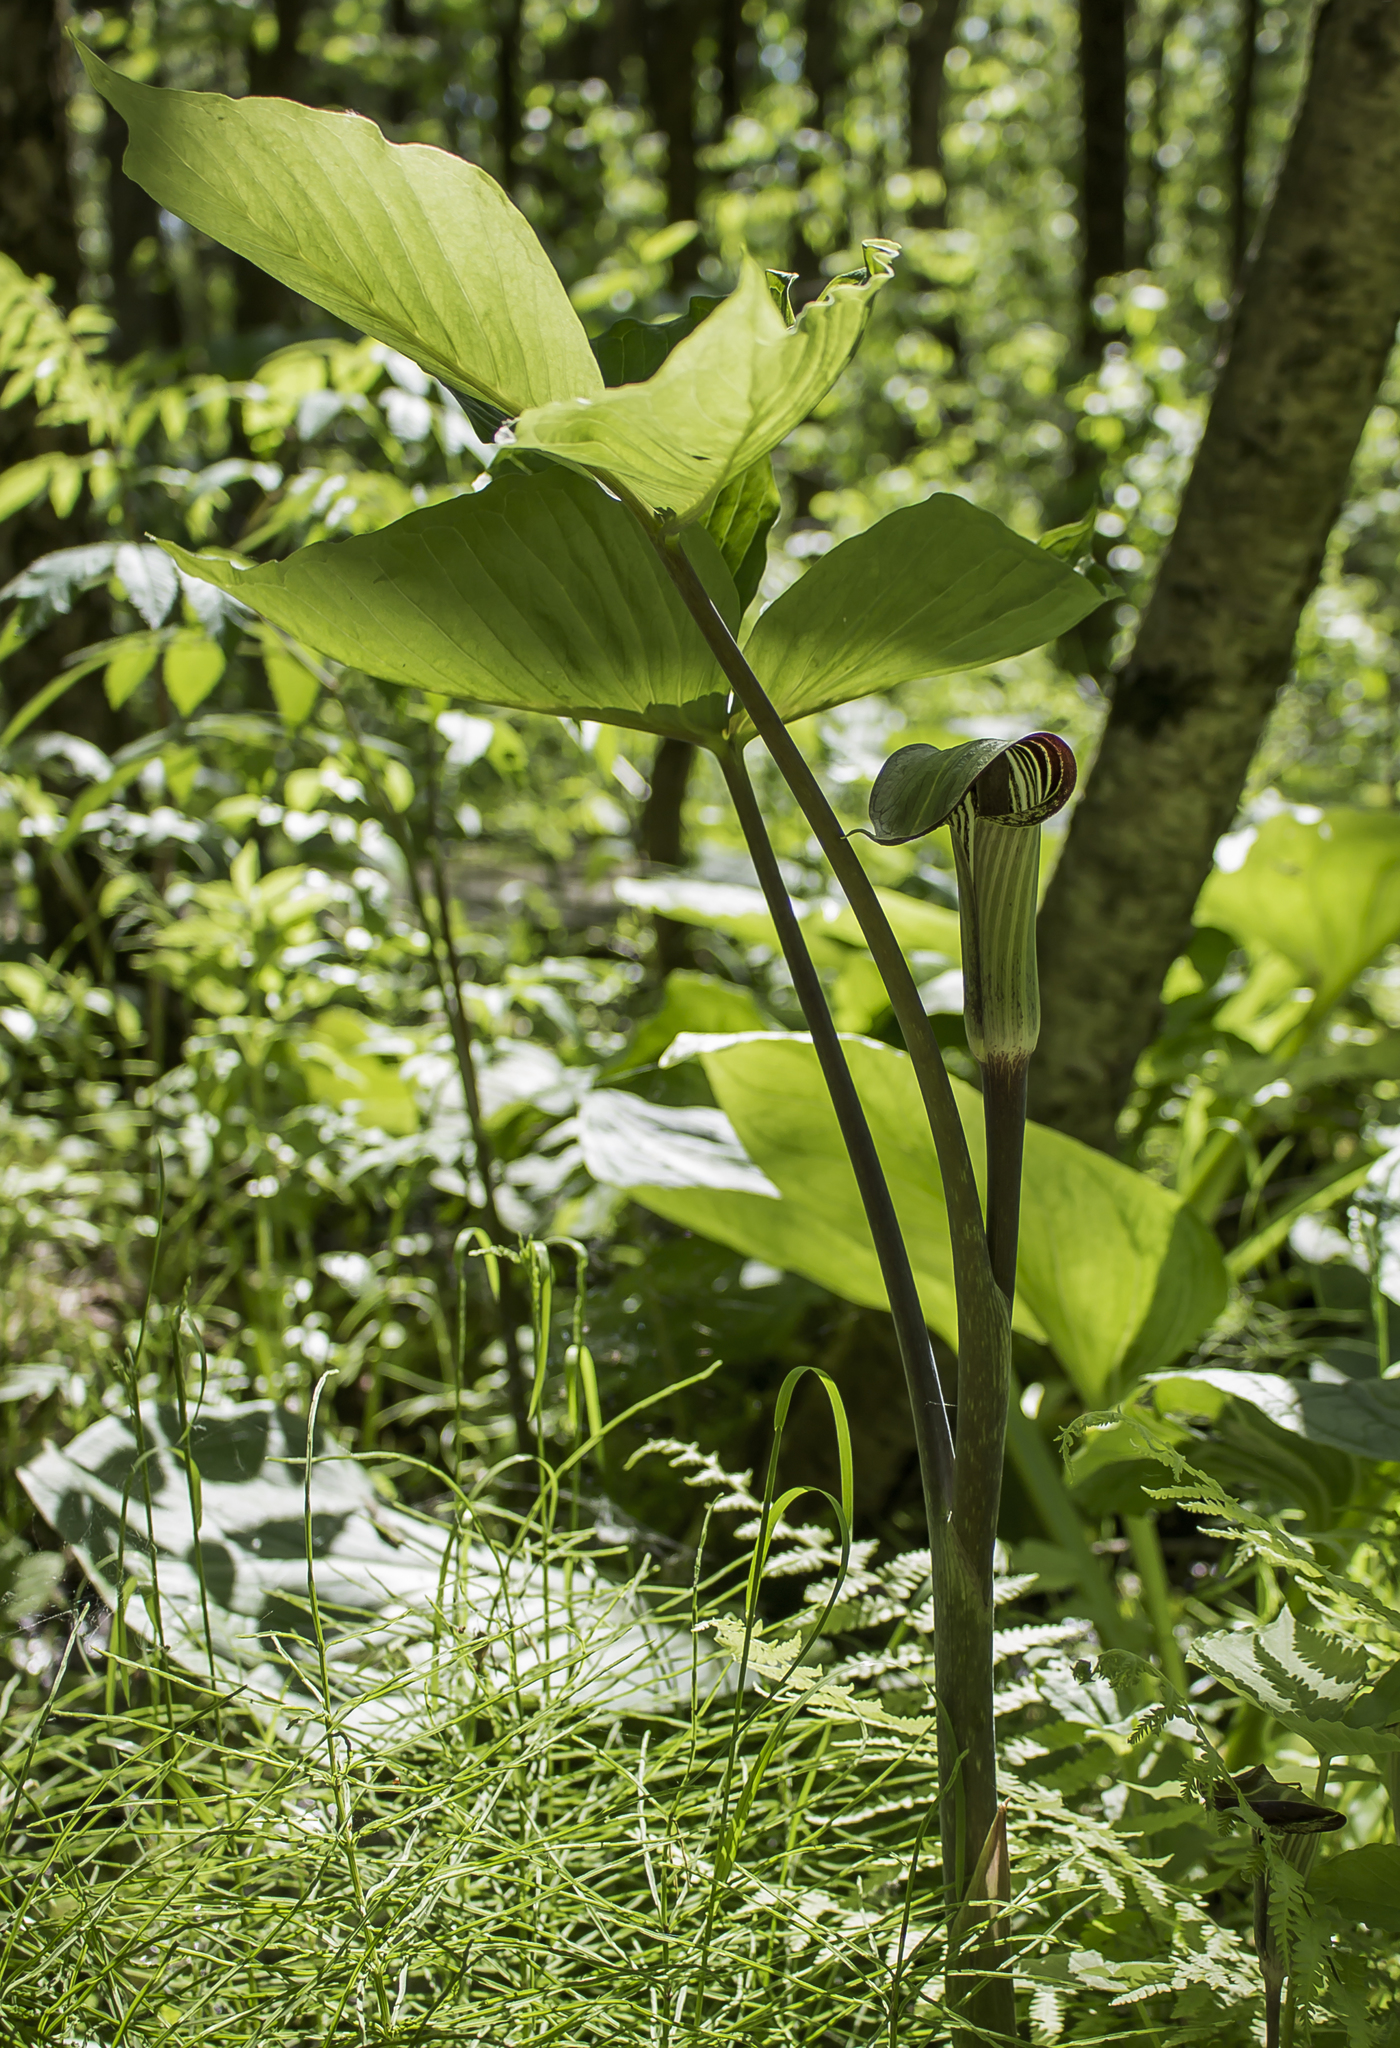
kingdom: Plantae
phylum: Tracheophyta
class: Liliopsida
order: Alismatales
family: Araceae
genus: Arisaema
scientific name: Arisaema triphyllum
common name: Jack-in-the-pulpit
